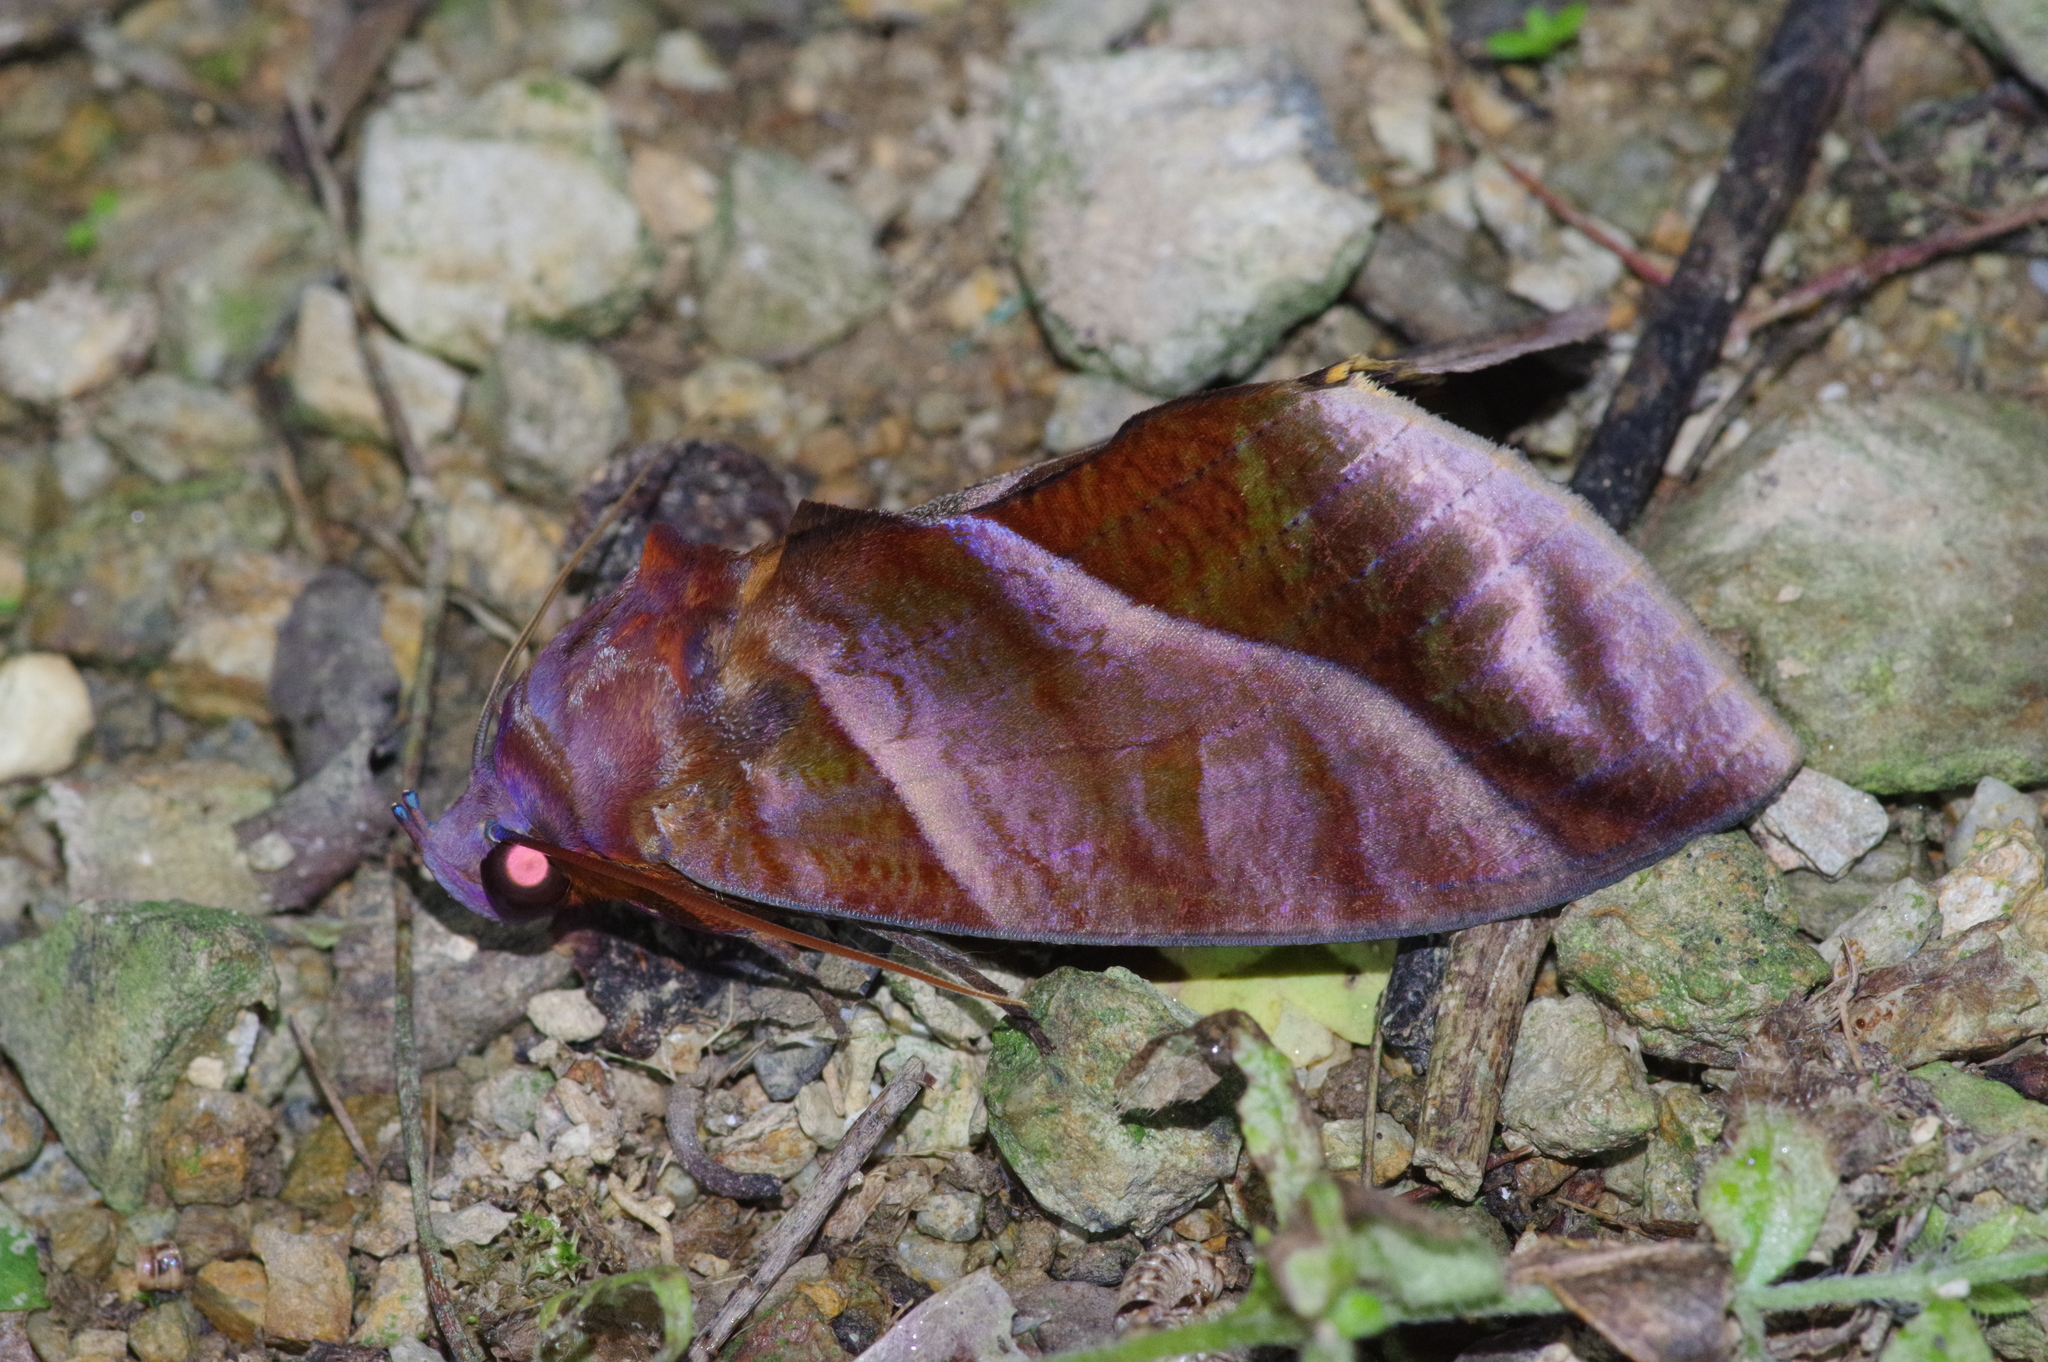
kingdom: Animalia
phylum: Arthropoda
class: Insecta
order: Lepidoptera
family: Erebidae
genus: Eudocima
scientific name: Eudocima homaena
